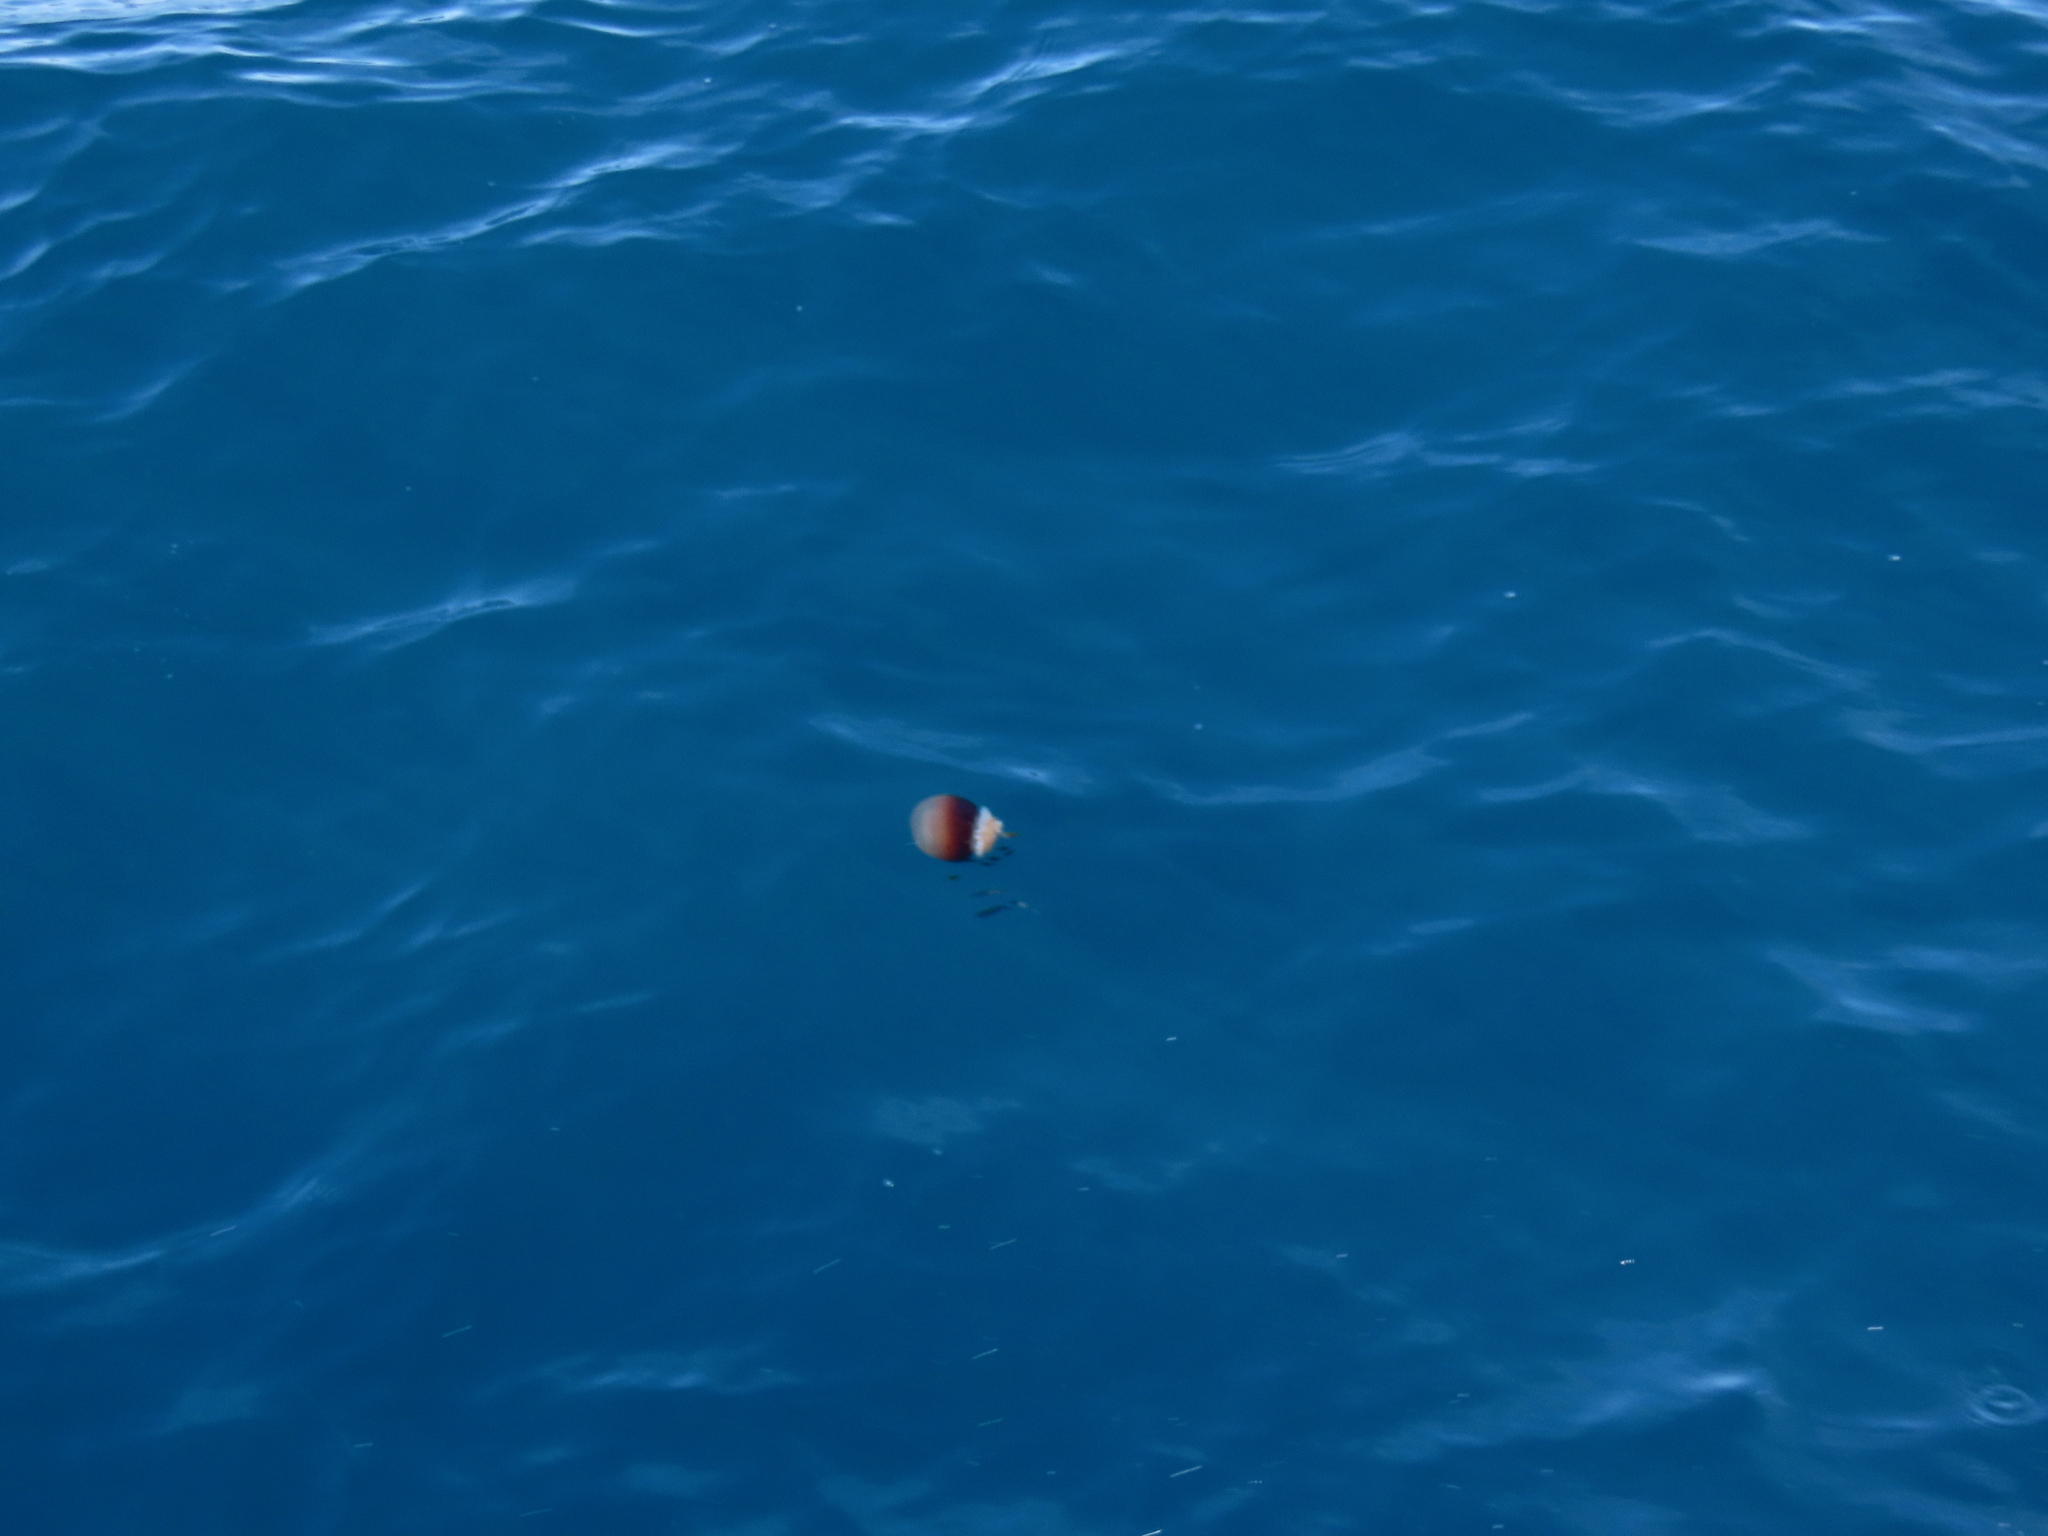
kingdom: Animalia
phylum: Cnidaria
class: Scyphozoa
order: Rhizostomeae
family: Stomolophidae
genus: Stomolophus
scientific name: Stomolophus meleagris
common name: Cabbagehead
